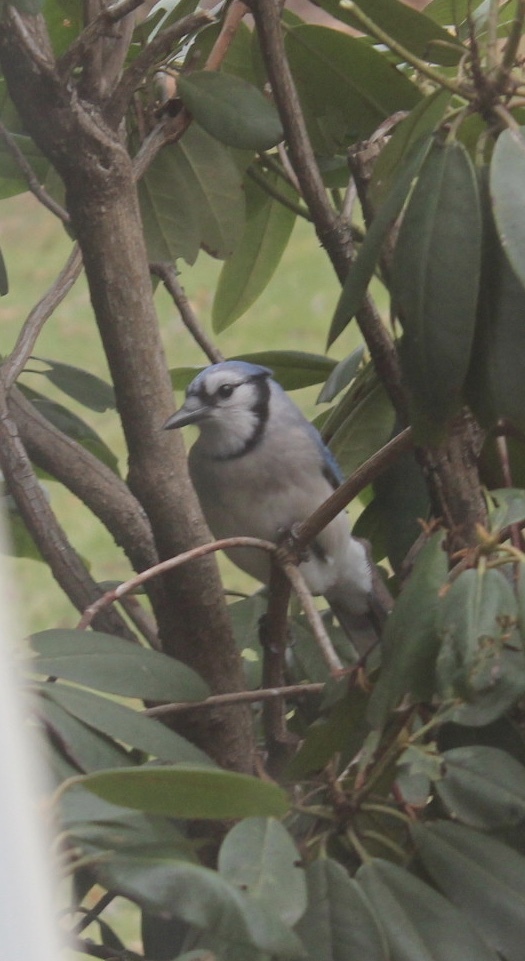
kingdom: Animalia
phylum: Chordata
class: Aves
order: Passeriformes
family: Corvidae
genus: Cyanocitta
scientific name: Cyanocitta cristata
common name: Blue jay
